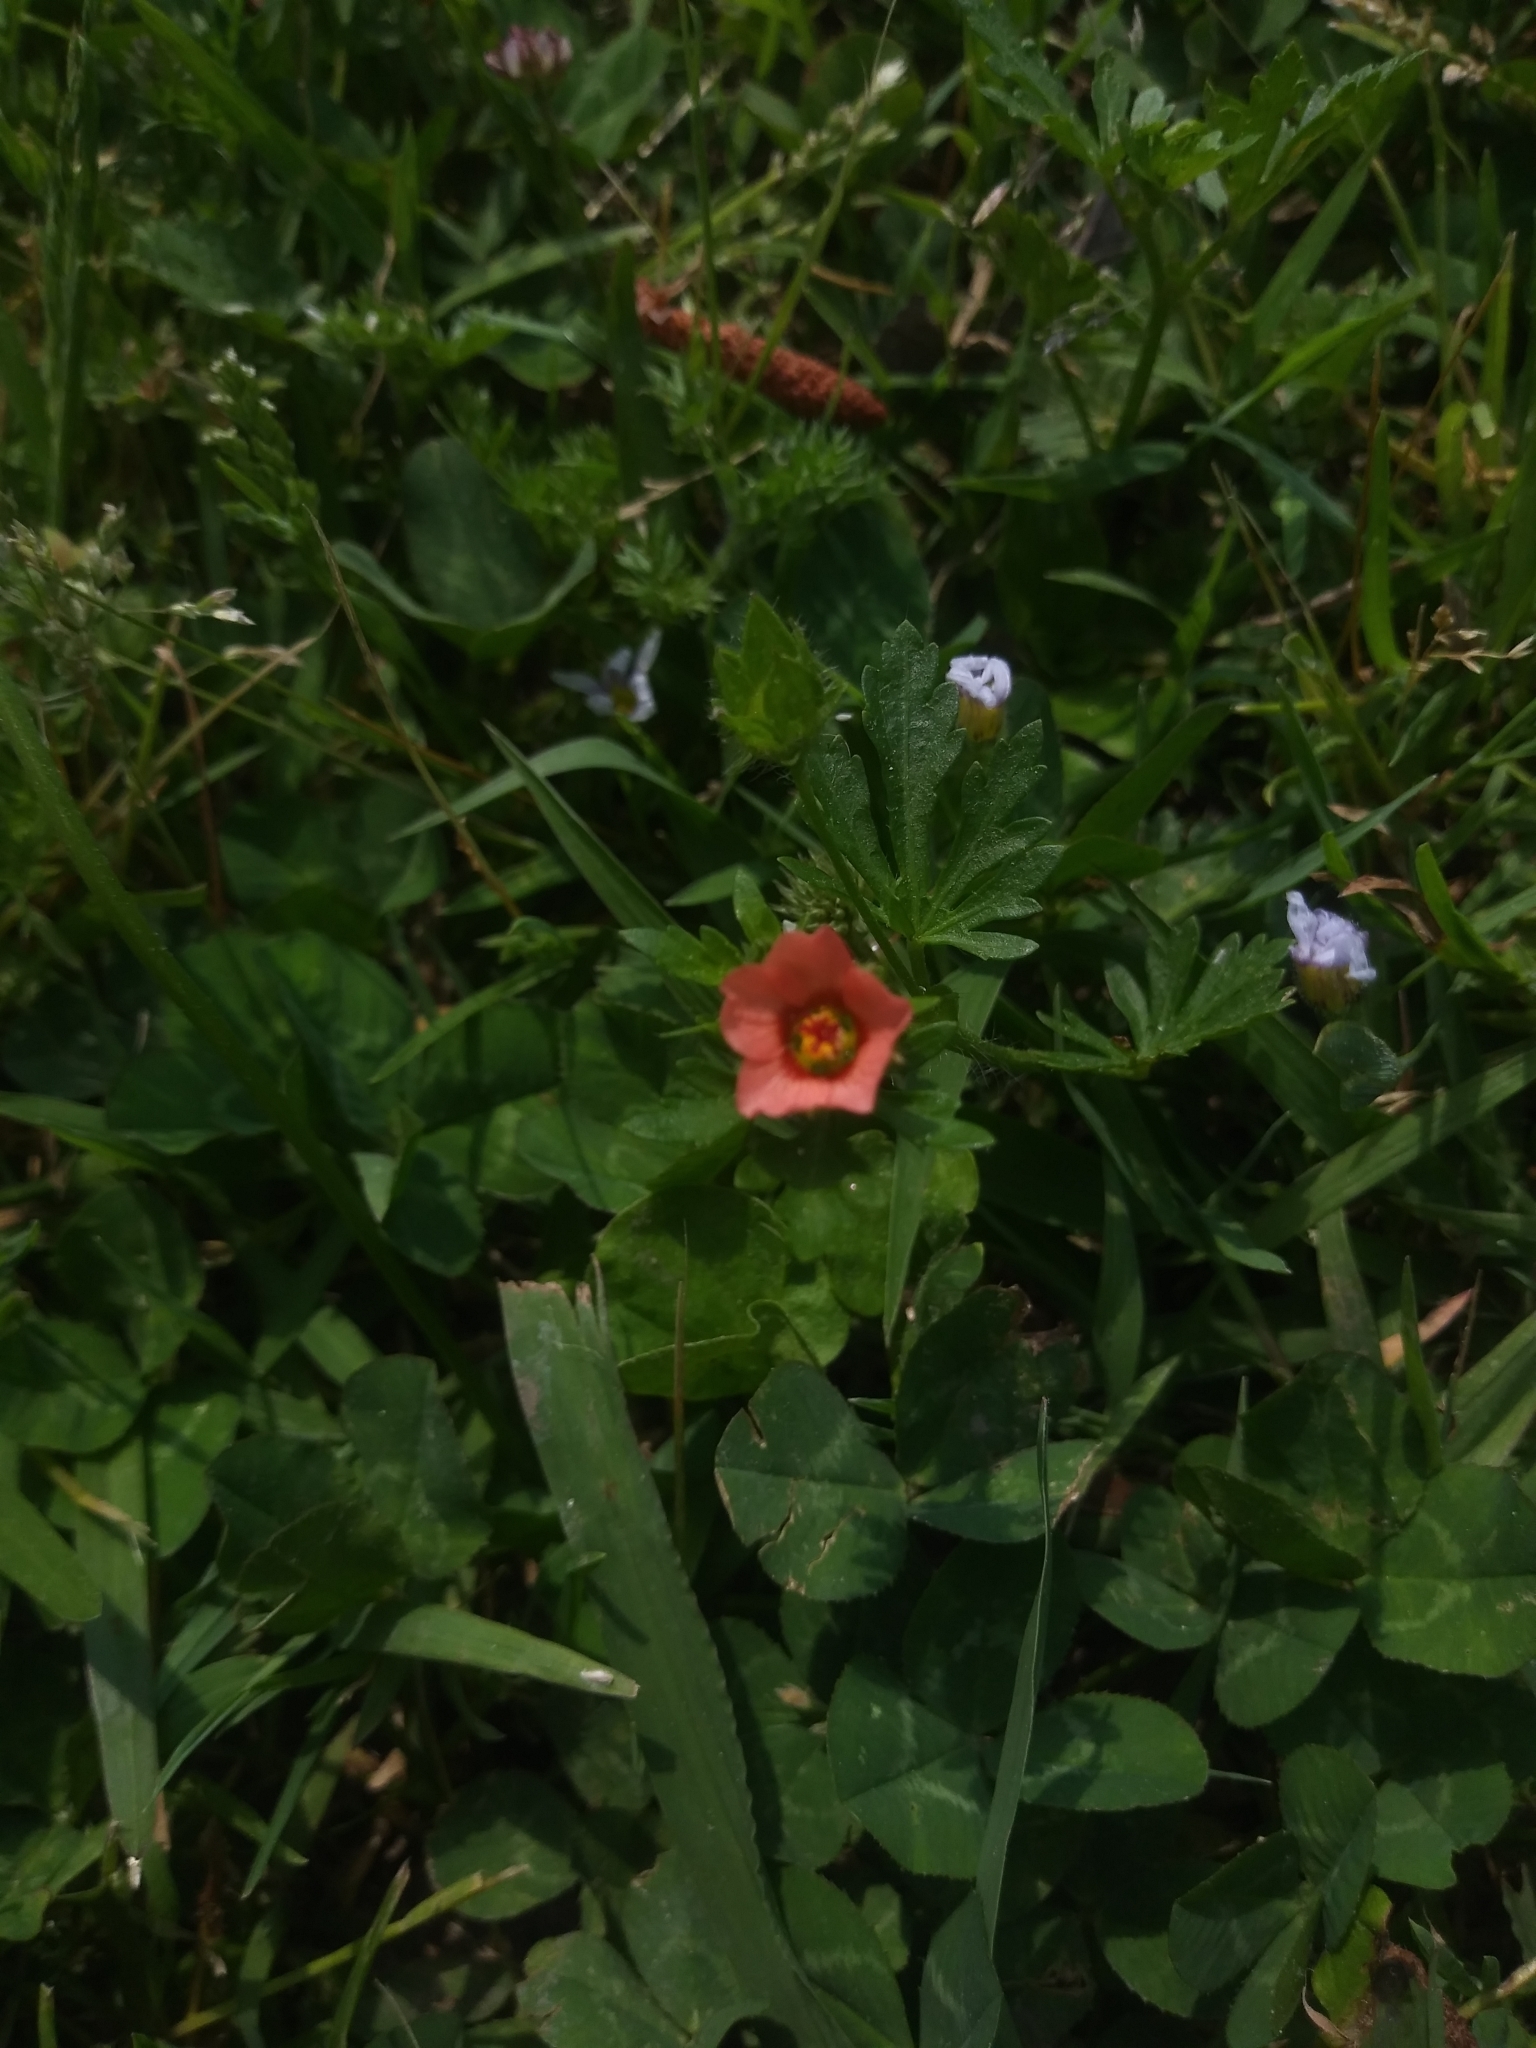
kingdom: Plantae
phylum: Tracheophyta
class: Magnoliopsida
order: Malvales
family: Malvaceae
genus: Modiola
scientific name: Modiola caroliniana
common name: Carolina bristlemallow
